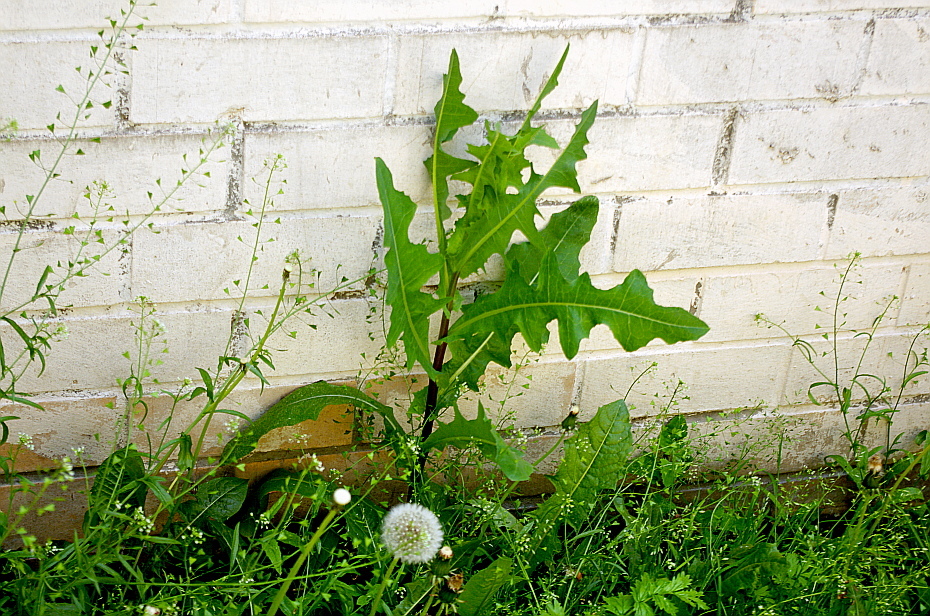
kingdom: Plantae
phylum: Tracheophyta
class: Magnoliopsida
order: Asterales
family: Asteraceae
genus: Lactuca
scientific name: Lactuca serriola
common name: Prickly lettuce
